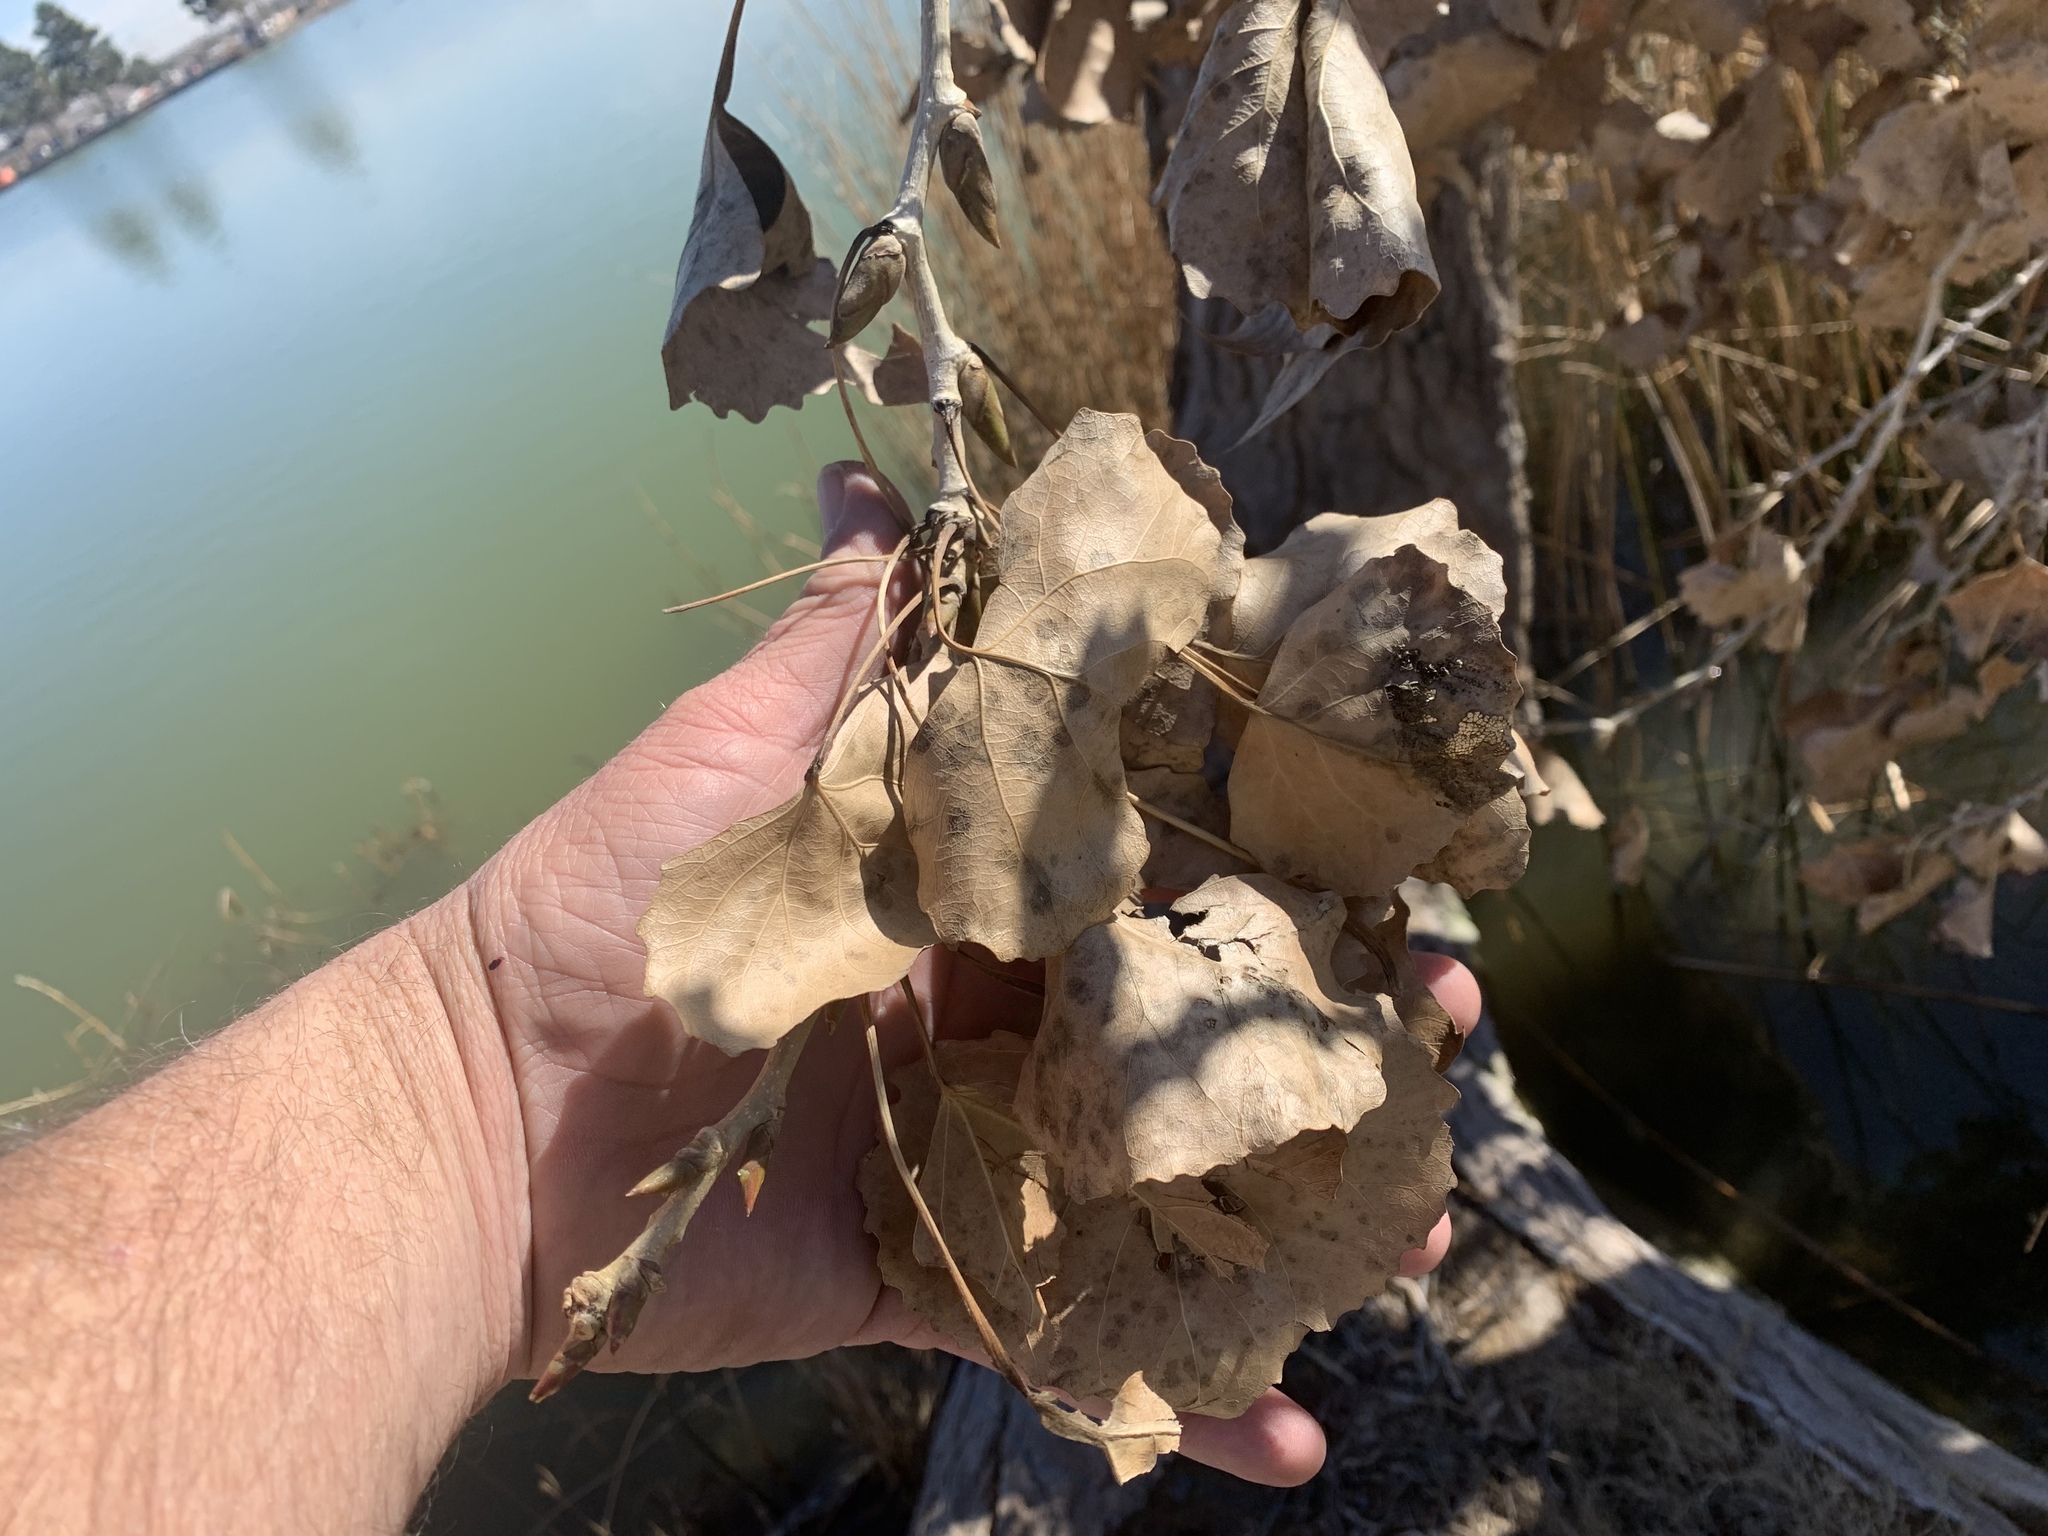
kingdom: Plantae
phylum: Tracheophyta
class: Magnoliopsida
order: Malpighiales
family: Salicaceae
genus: Populus
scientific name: Populus deltoides
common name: Eastern cottonwood
